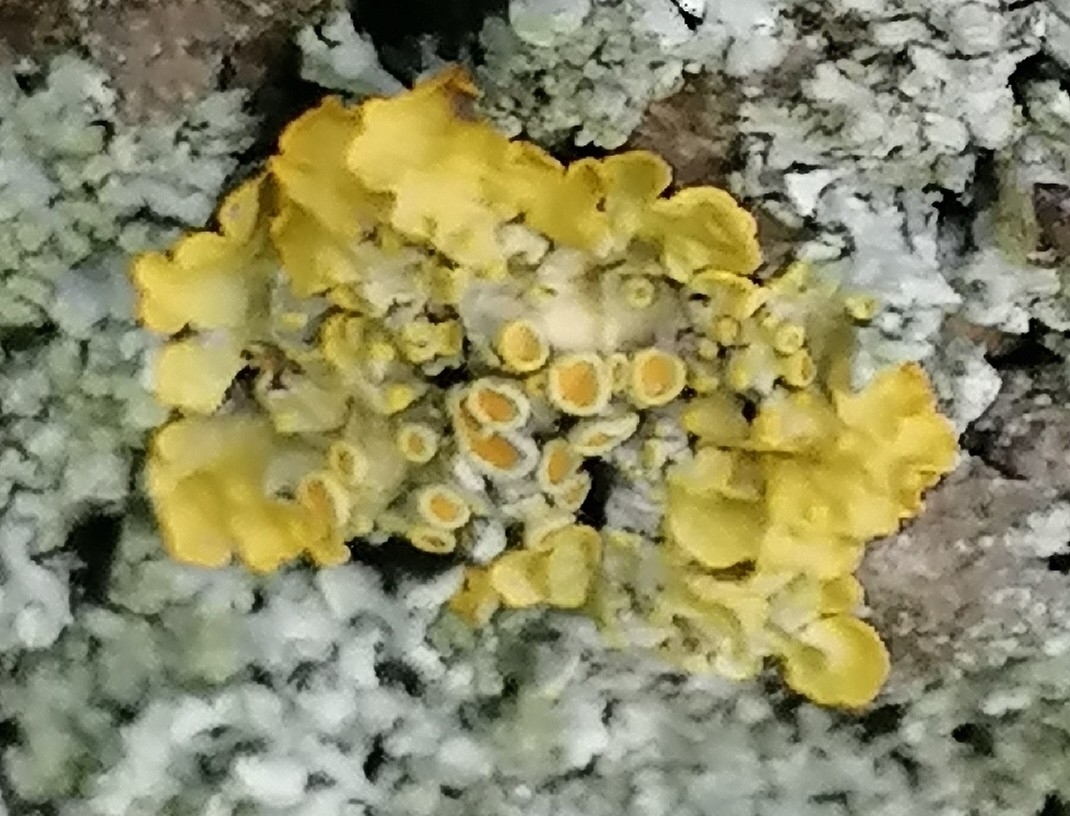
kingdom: Fungi
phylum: Ascomycota
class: Lecanoromycetes
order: Teloschistales
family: Teloschistaceae
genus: Xanthoria
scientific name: Xanthoria parietina
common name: Common orange lichen
